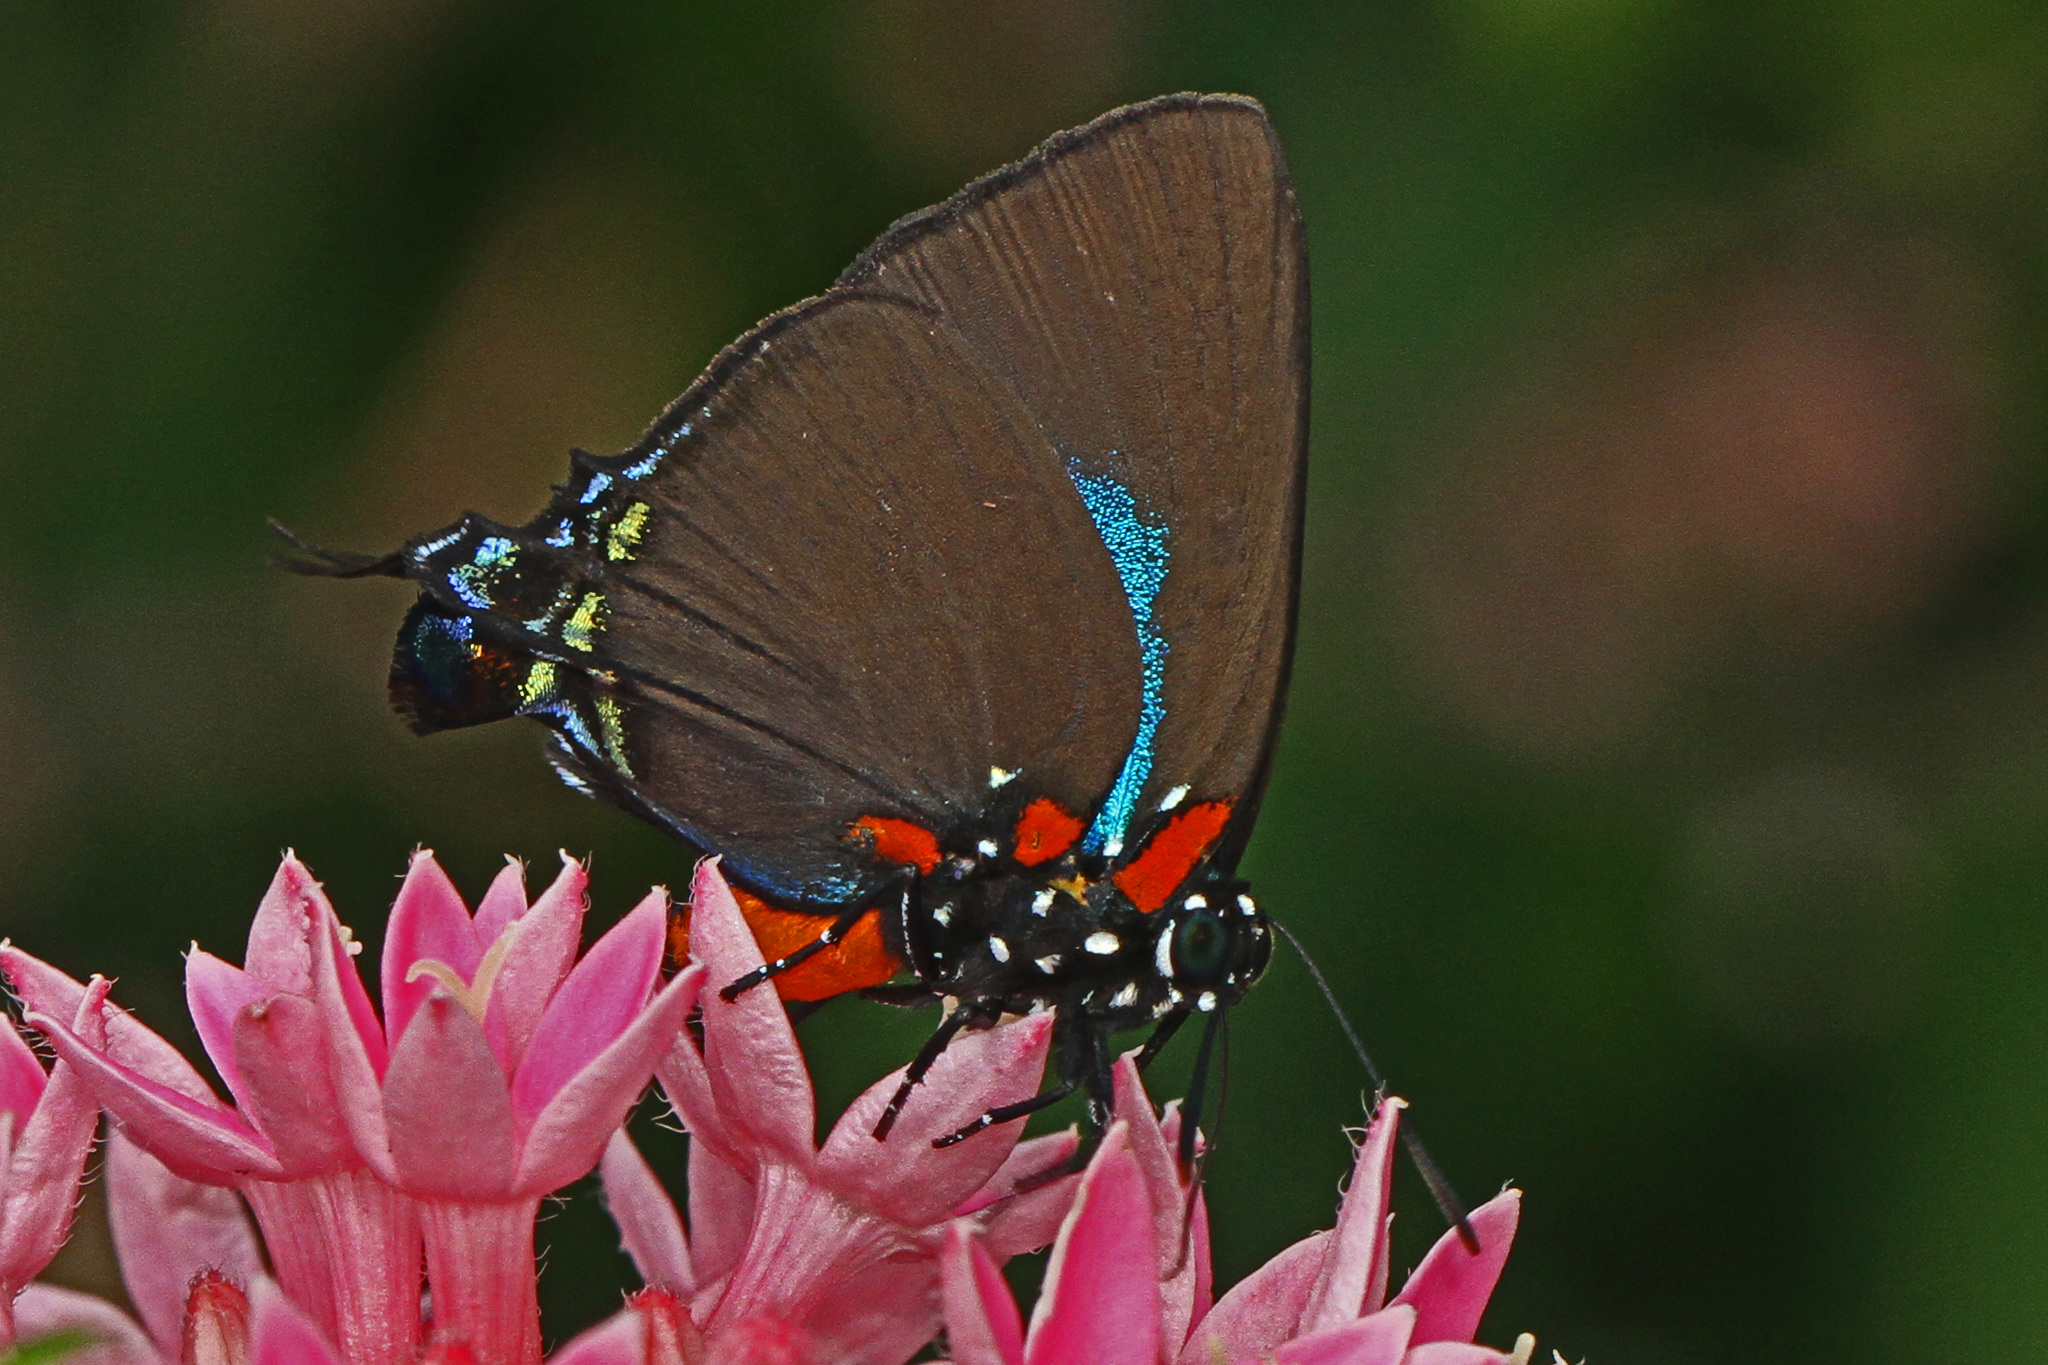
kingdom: Animalia
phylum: Arthropoda
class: Insecta
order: Lepidoptera
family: Lycaenidae
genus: Atlides
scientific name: Atlides halesus
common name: Great purple hairstreak
